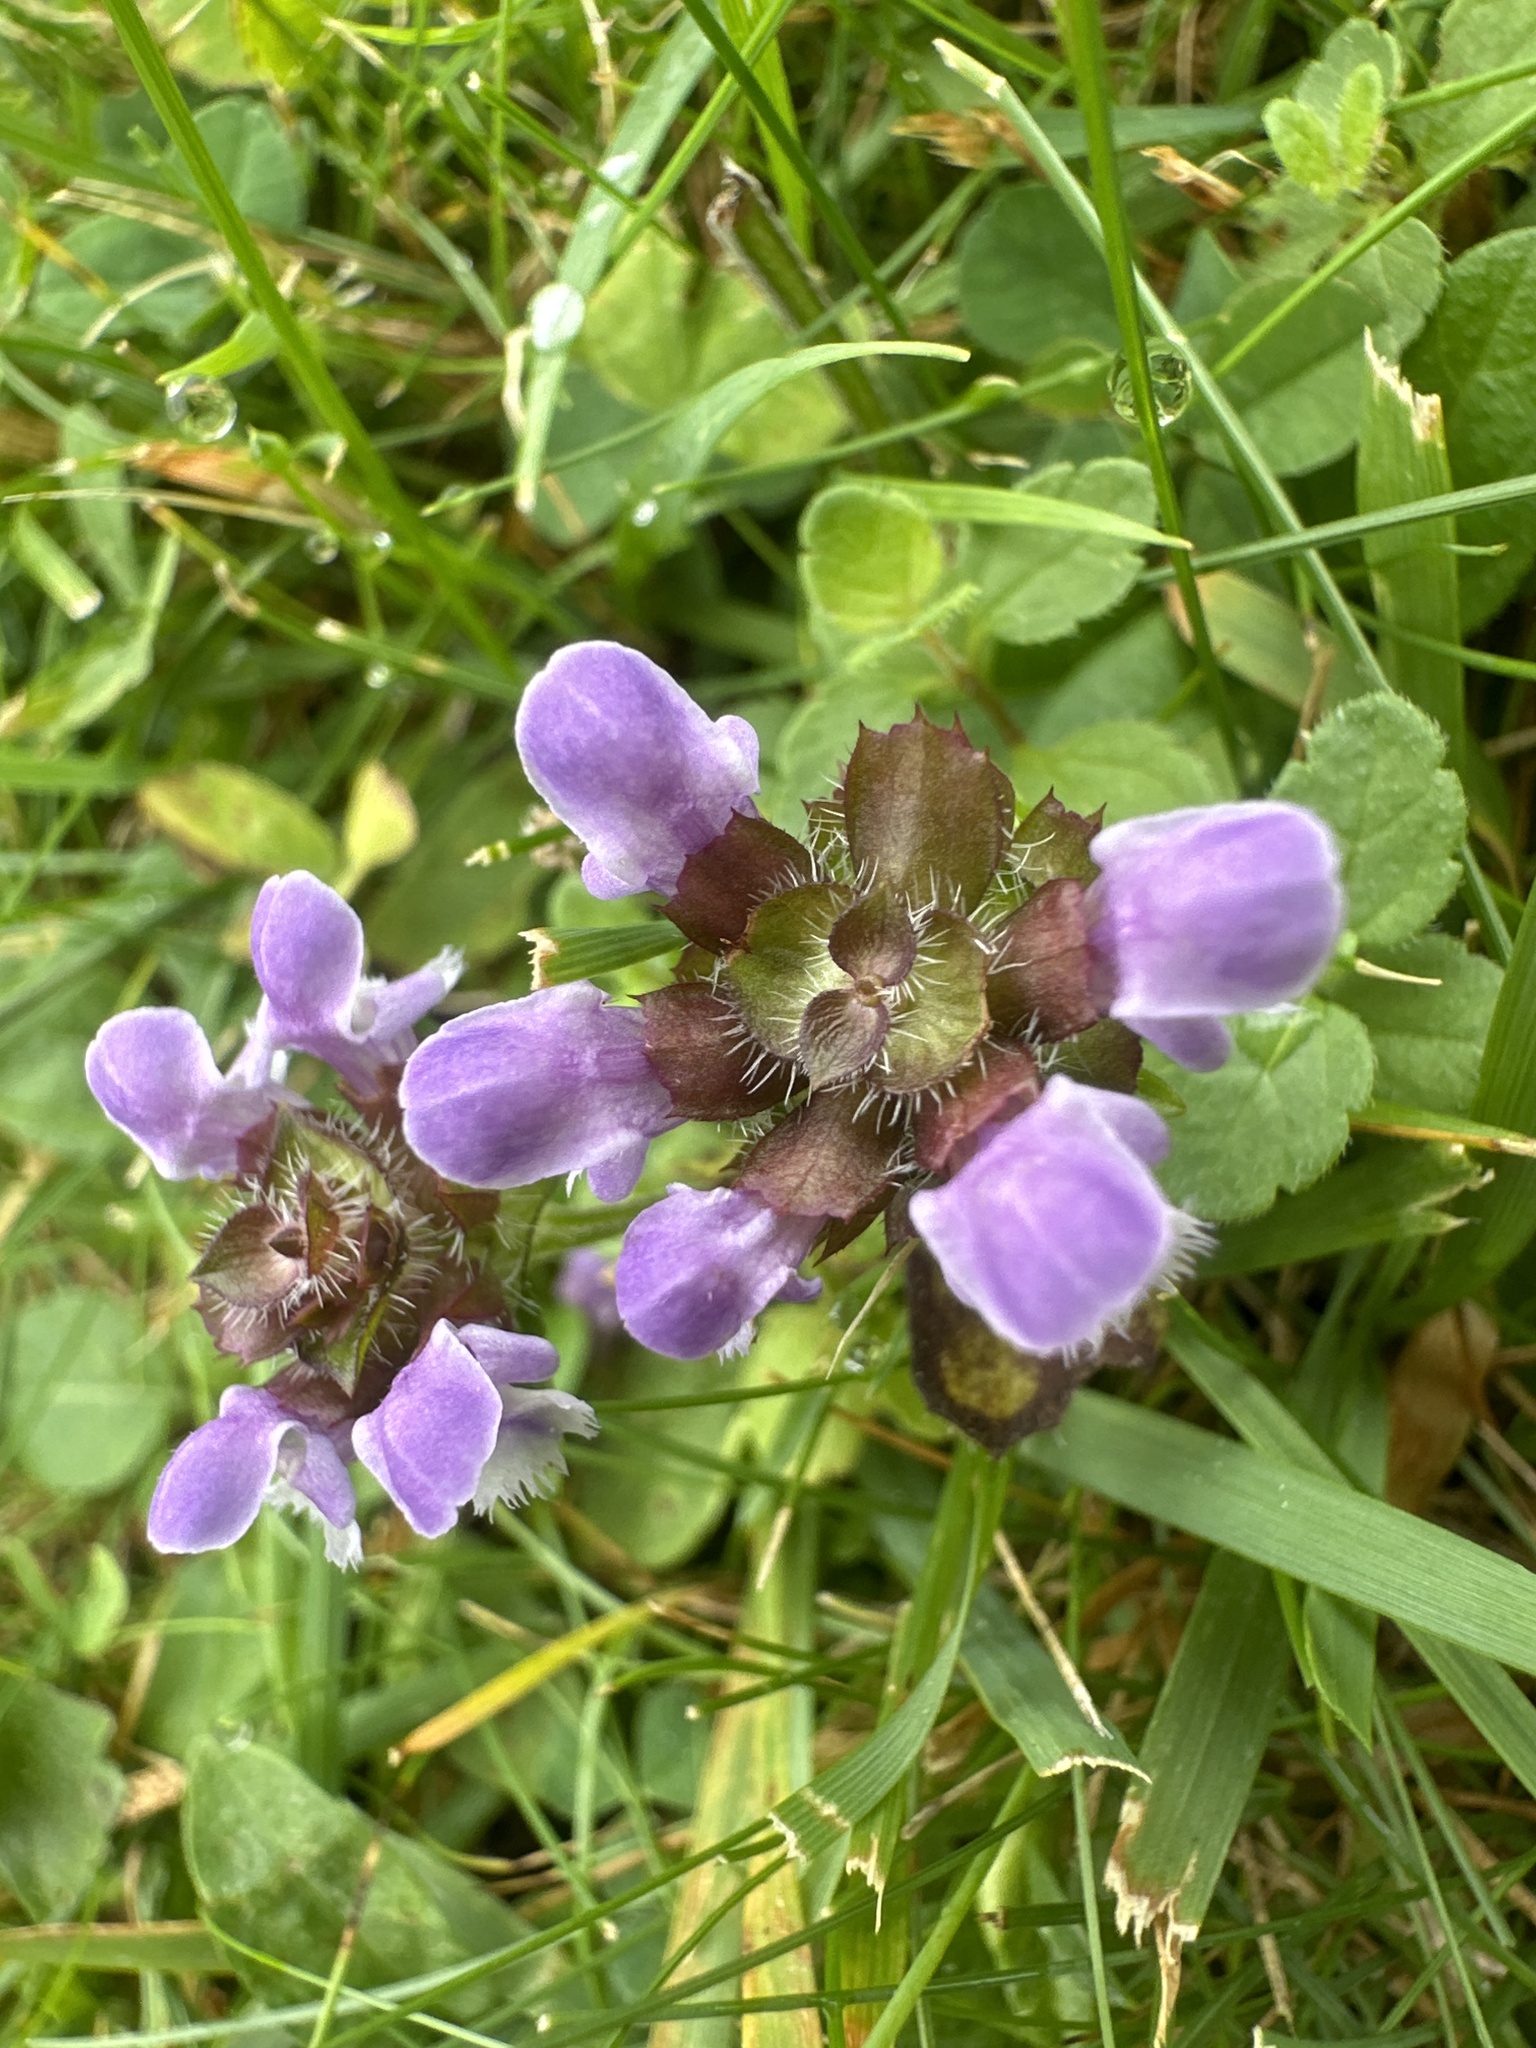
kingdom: Plantae
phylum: Tracheophyta
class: Magnoliopsida
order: Lamiales
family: Lamiaceae
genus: Prunella
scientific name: Prunella vulgaris
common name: Heal-all
